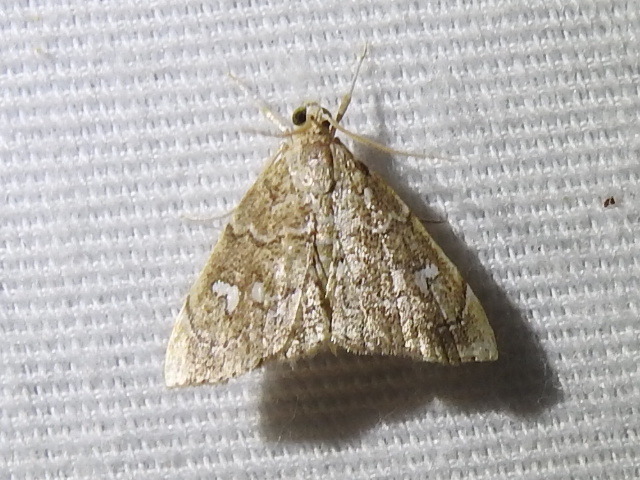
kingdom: Animalia
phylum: Arthropoda
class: Insecta
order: Lepidoptera
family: Crambidae
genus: Nephrogramma
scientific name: Nephrogramma reniculalis
